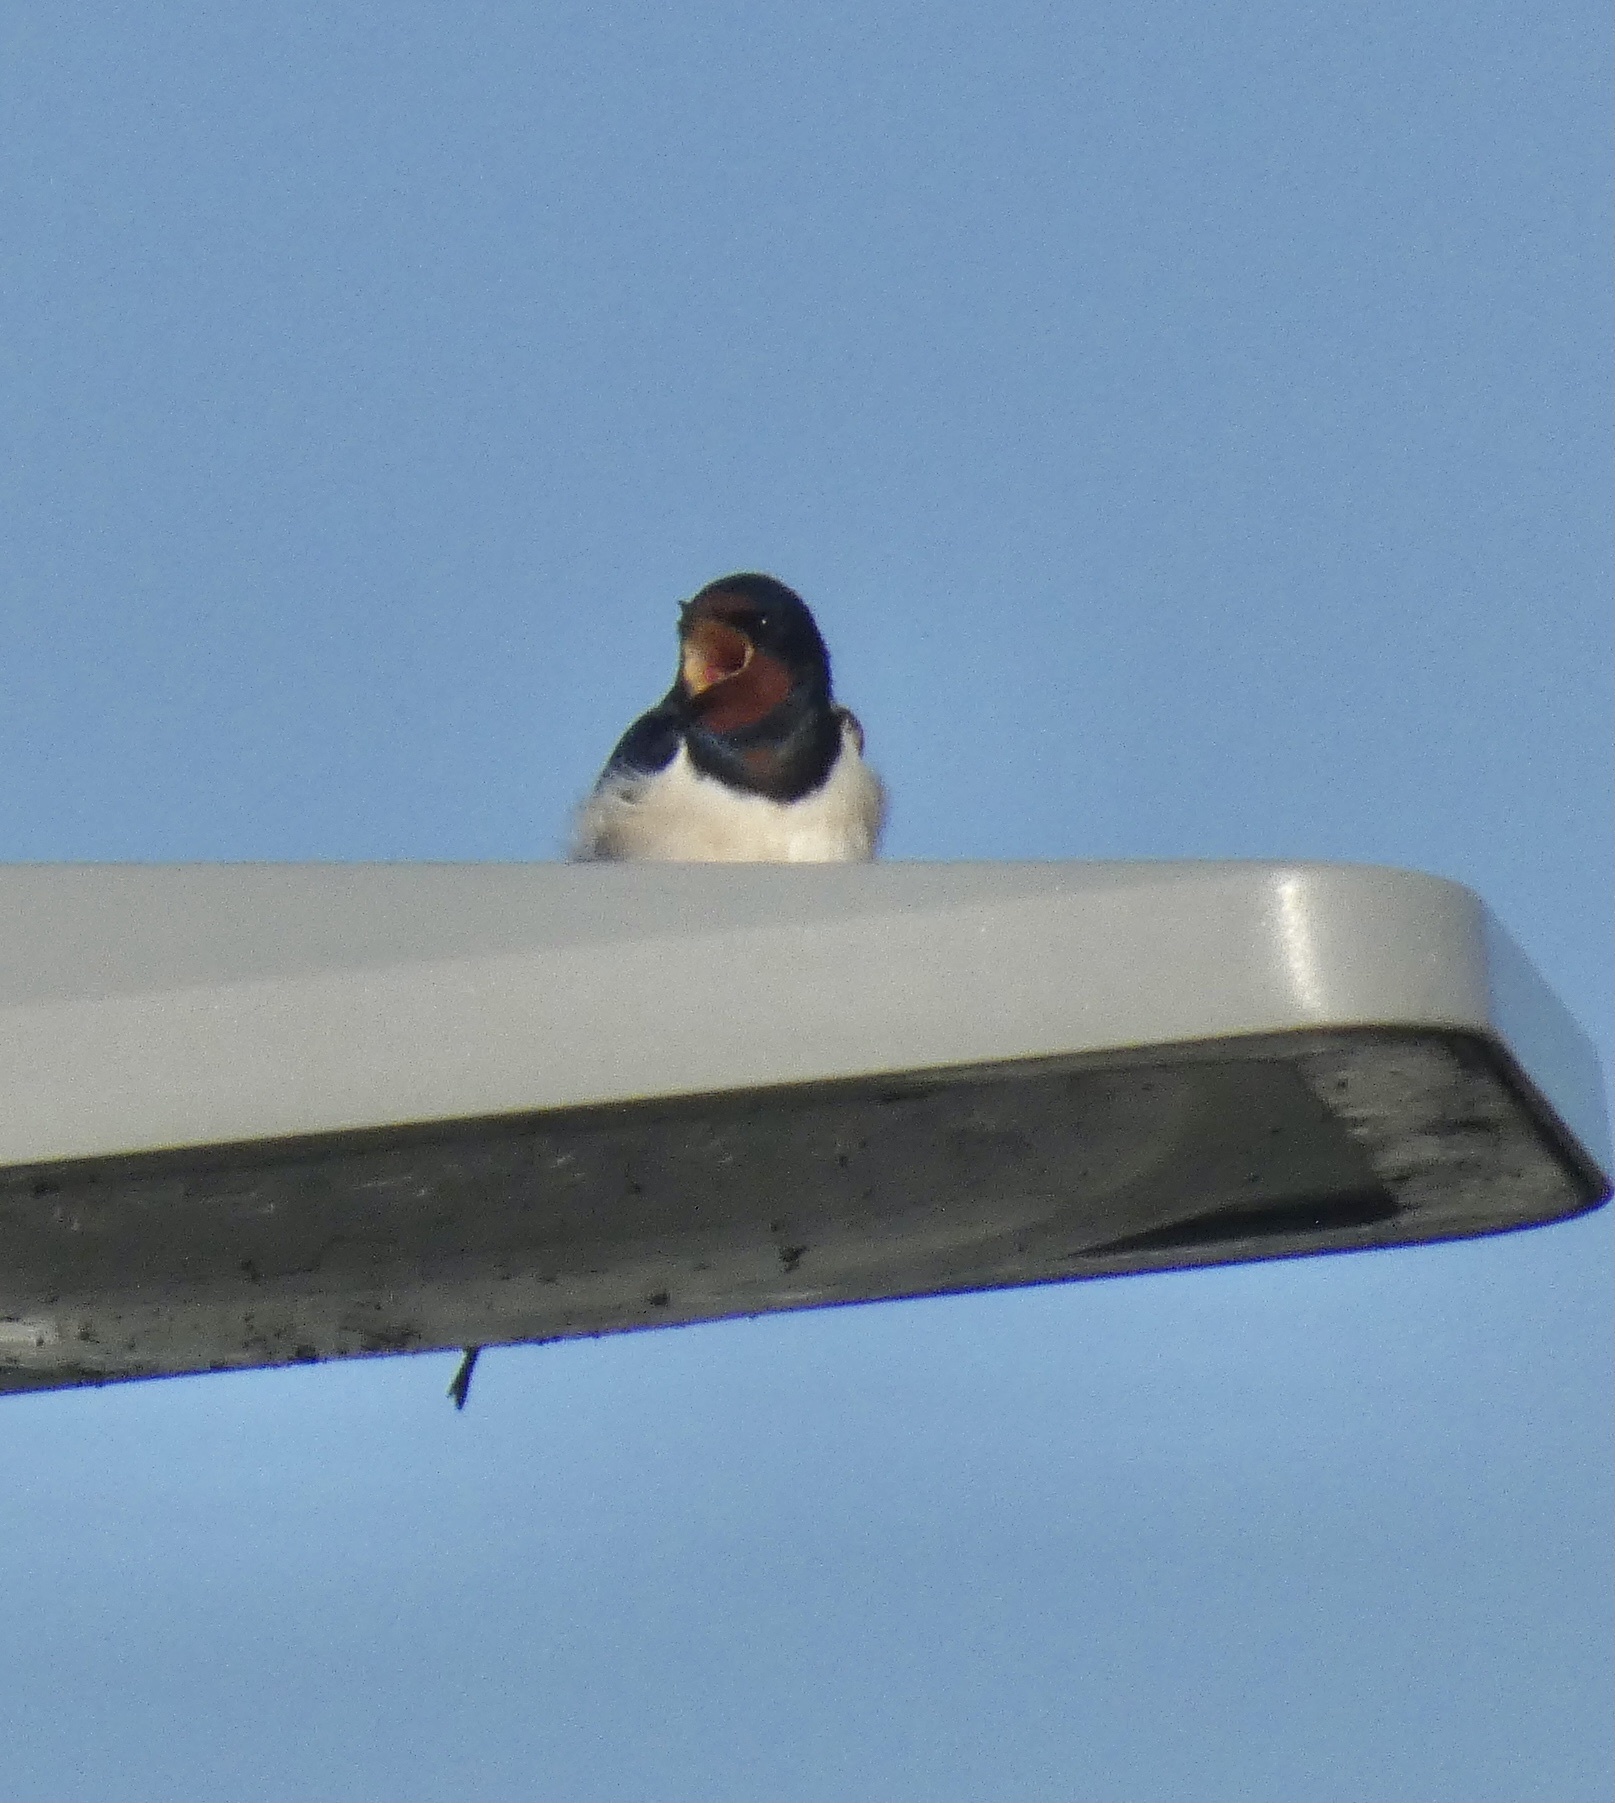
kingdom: Animalia
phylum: Chordata
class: Aves
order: Passeriformes
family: Hirundinidae
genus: Hirundo
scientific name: Hirundo rustica
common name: Barn swallow
